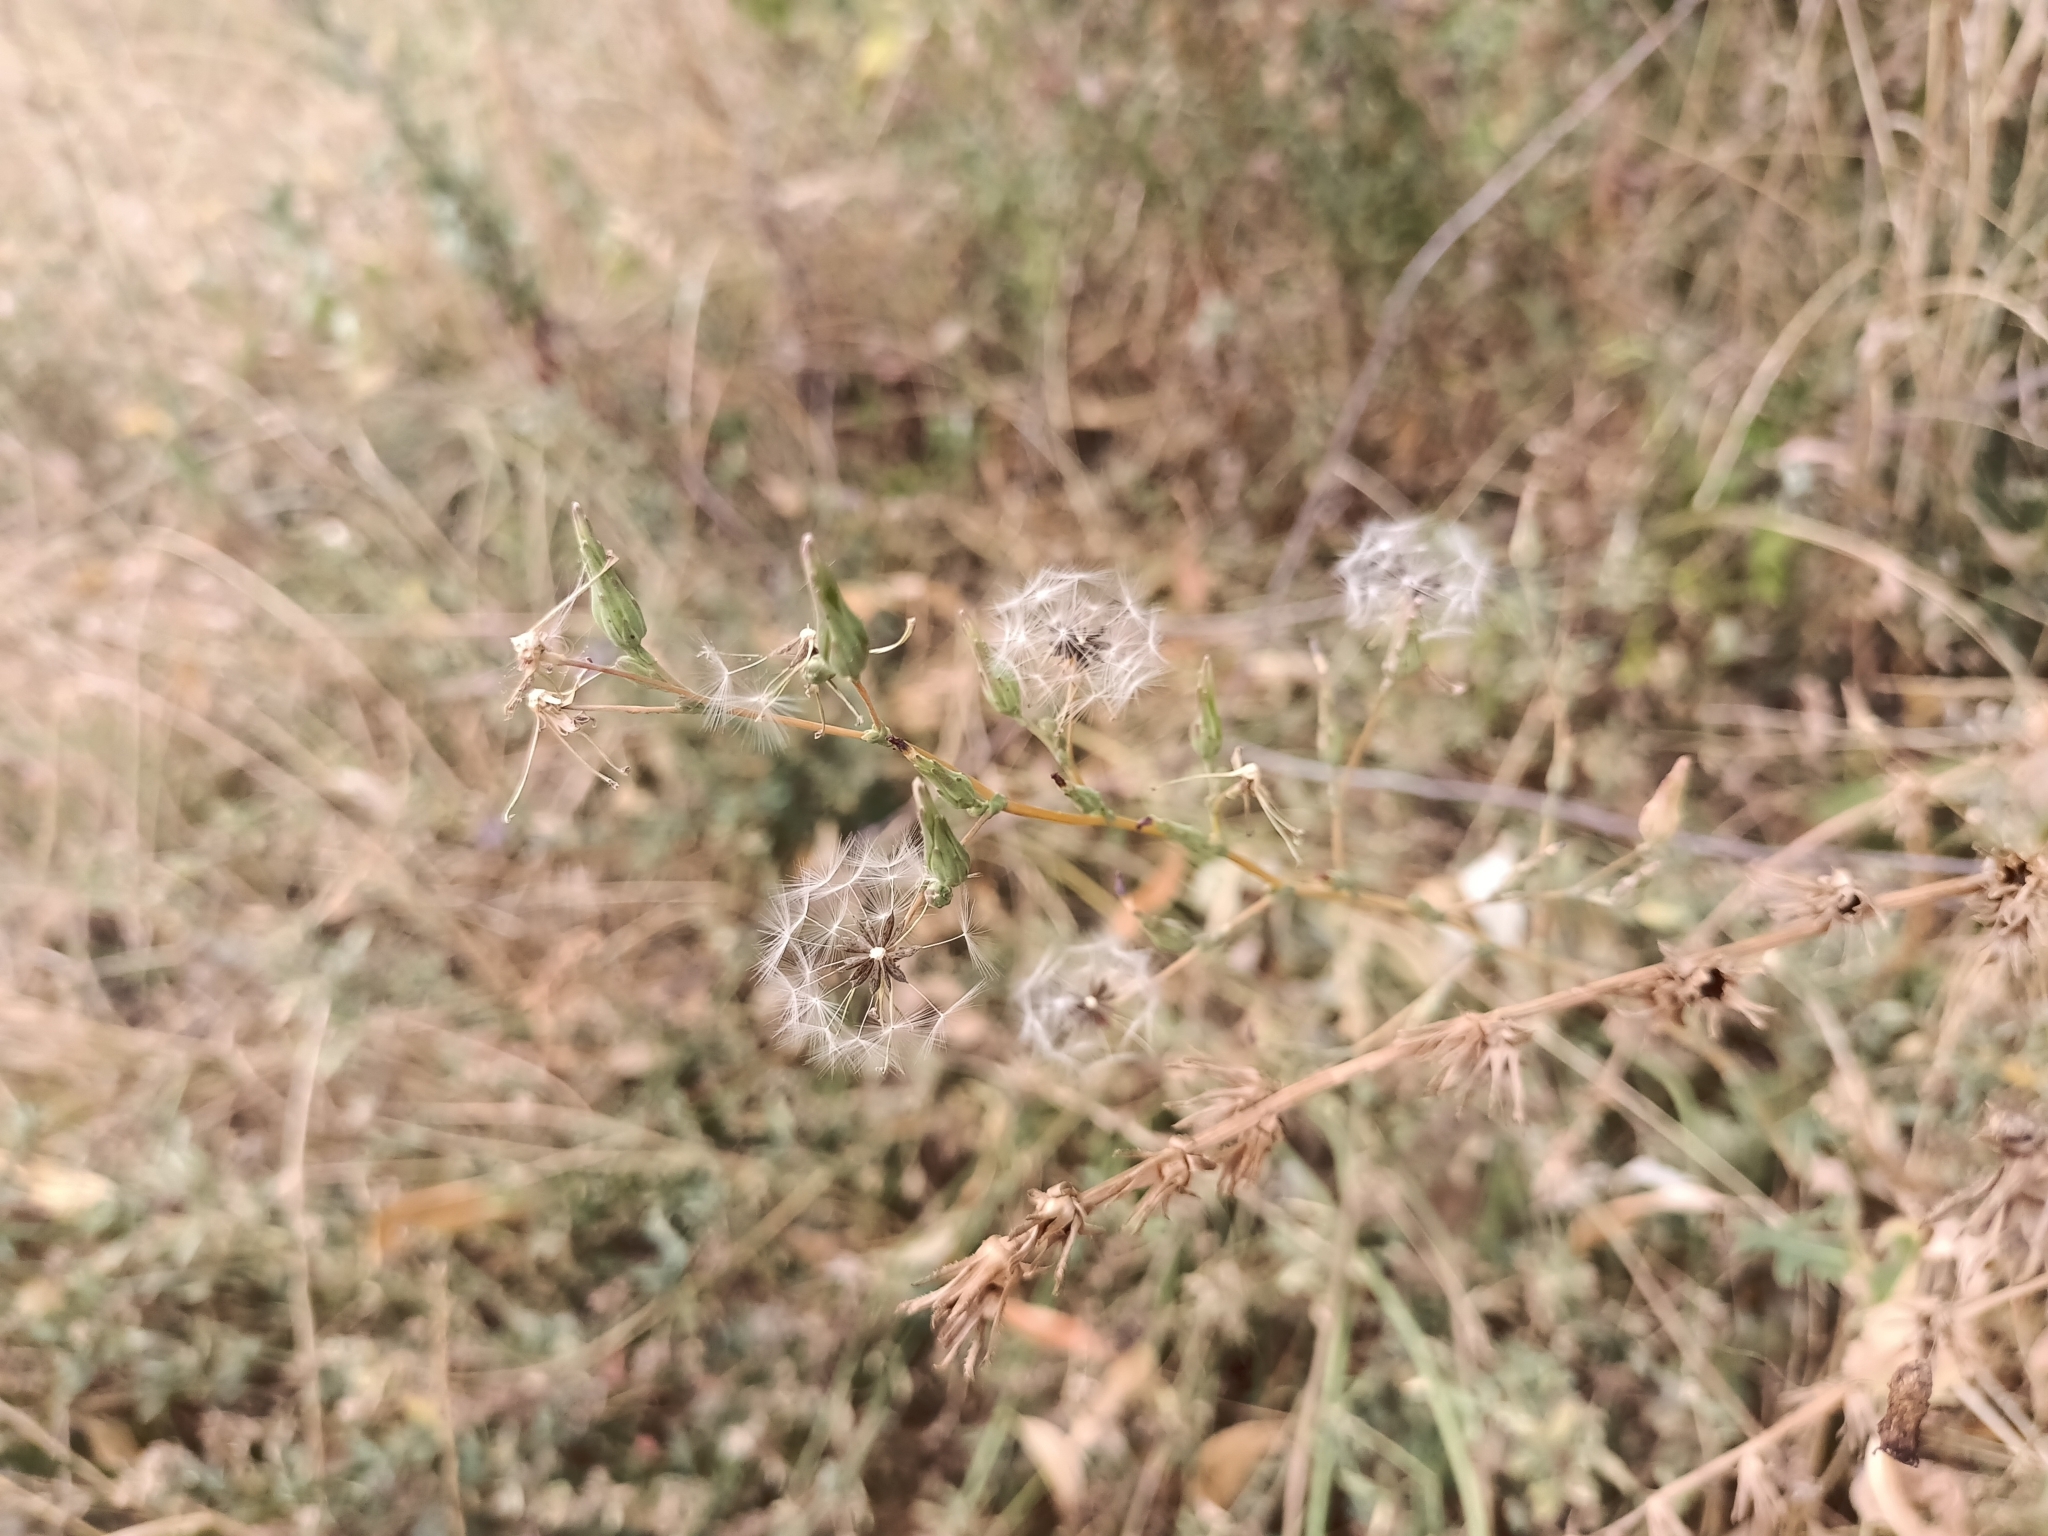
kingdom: Plantae
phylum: Tracheophyta
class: Magnoliopsida
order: Asterales
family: Asteraceae
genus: Lactuca
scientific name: Lactuca serriola
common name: Prickly lettuce
